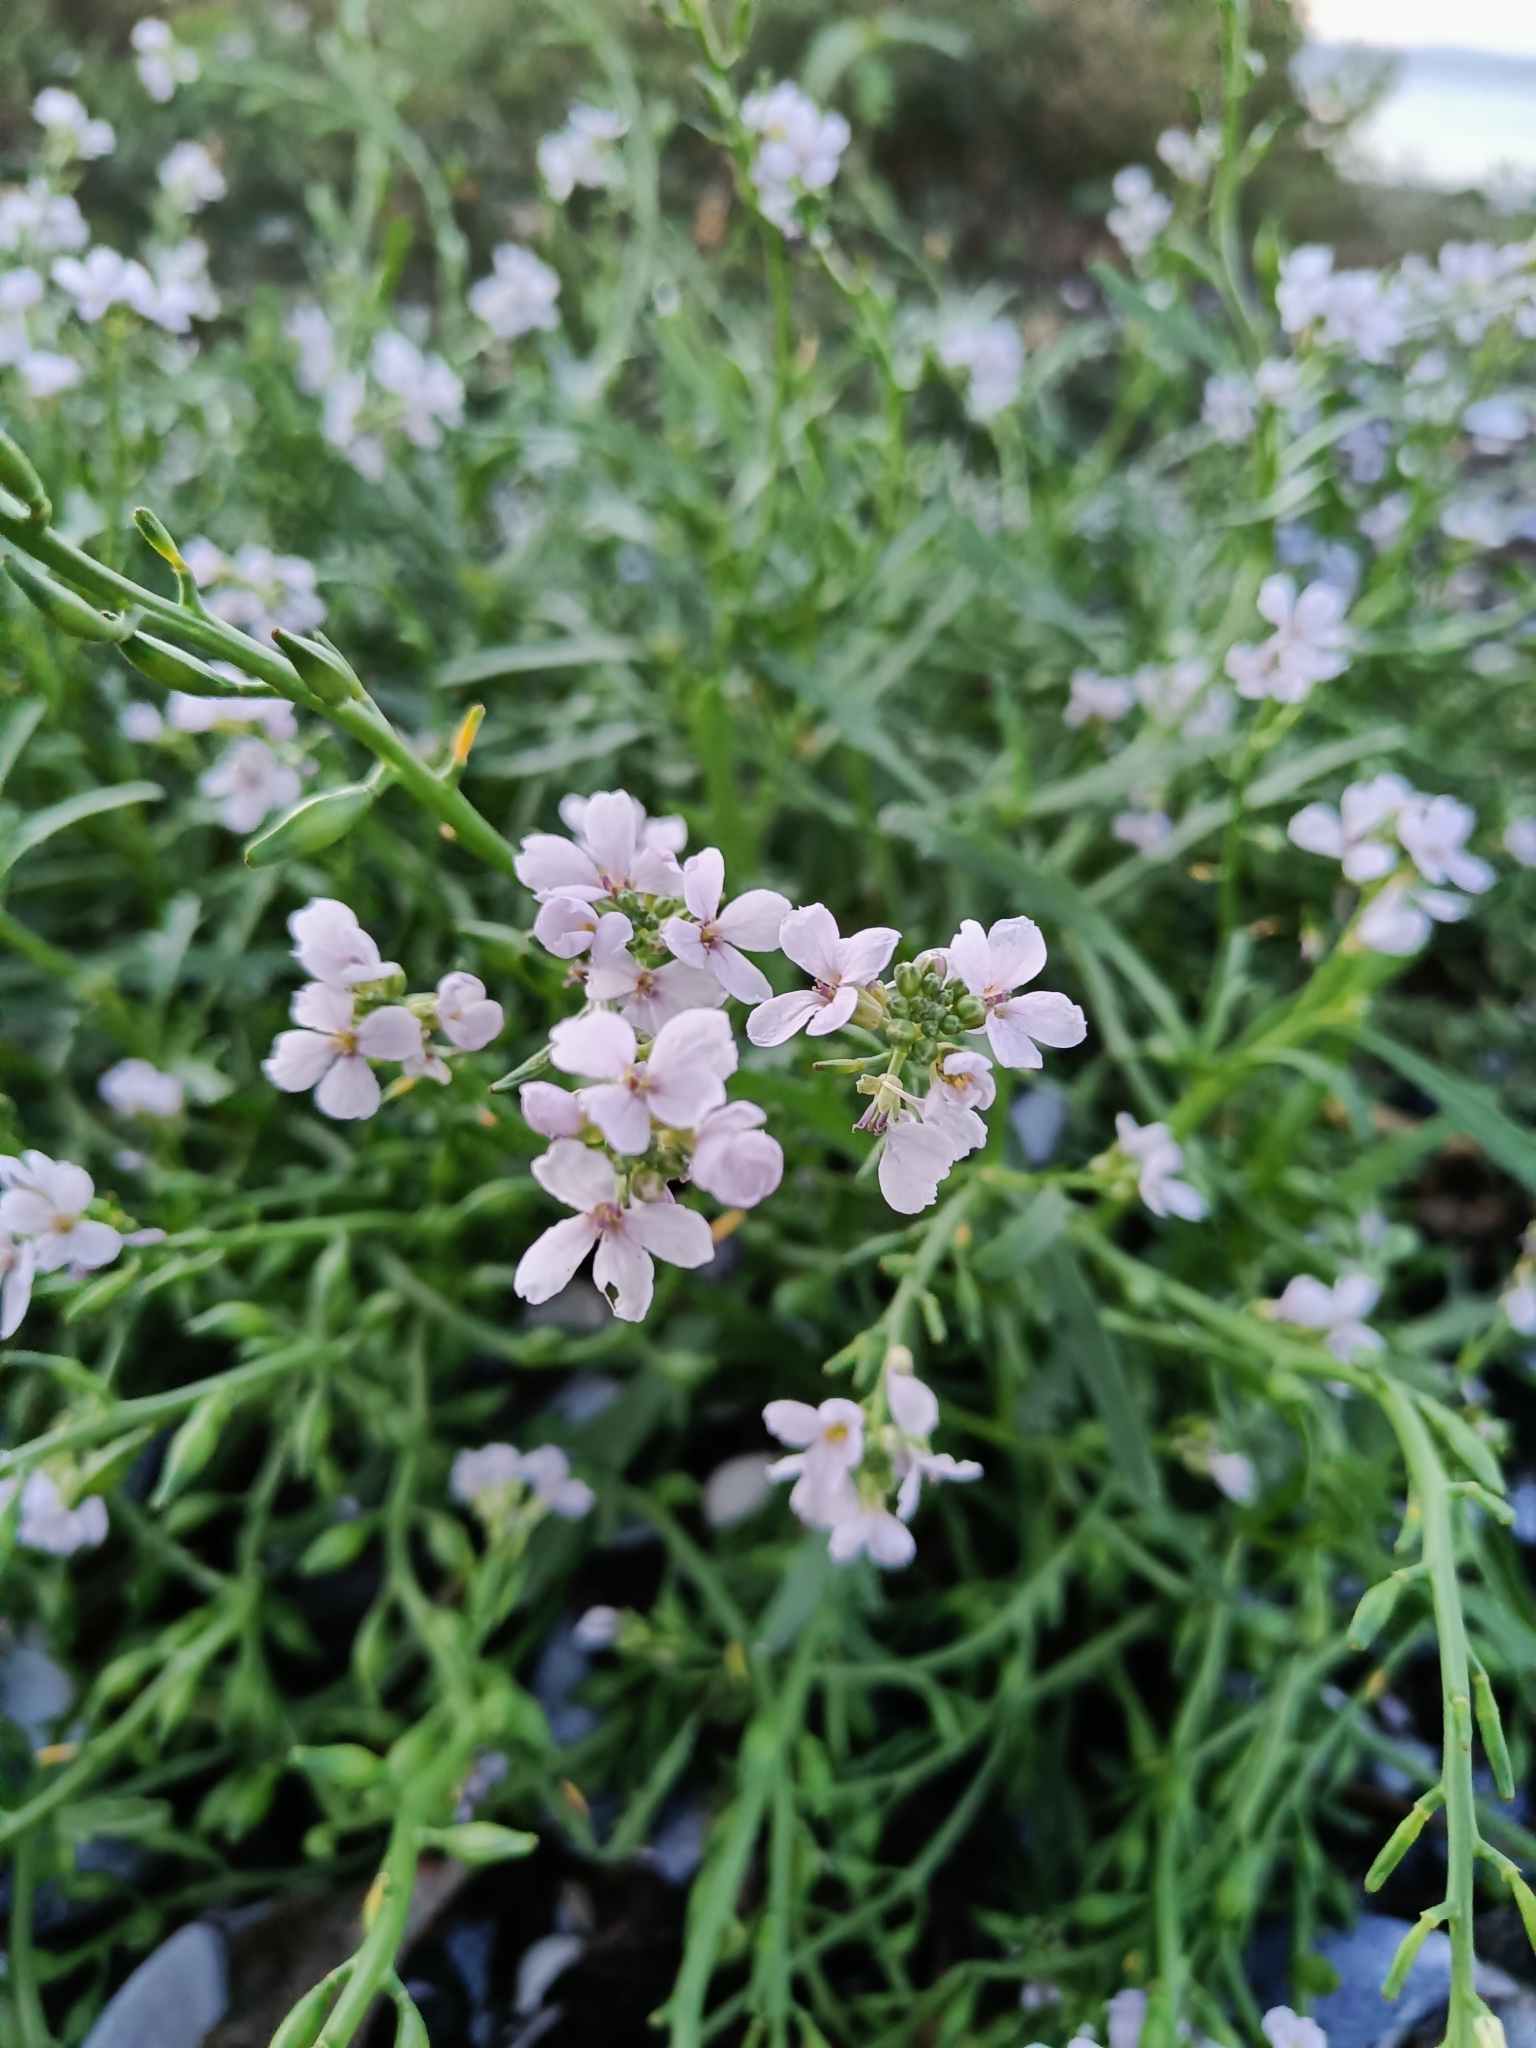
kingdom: Plantae
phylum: Tracheophyta
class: Magnoliopsida
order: Brassicales
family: Brassicaceae
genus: Cakile
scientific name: Cakile maritima
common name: Sea rocket
